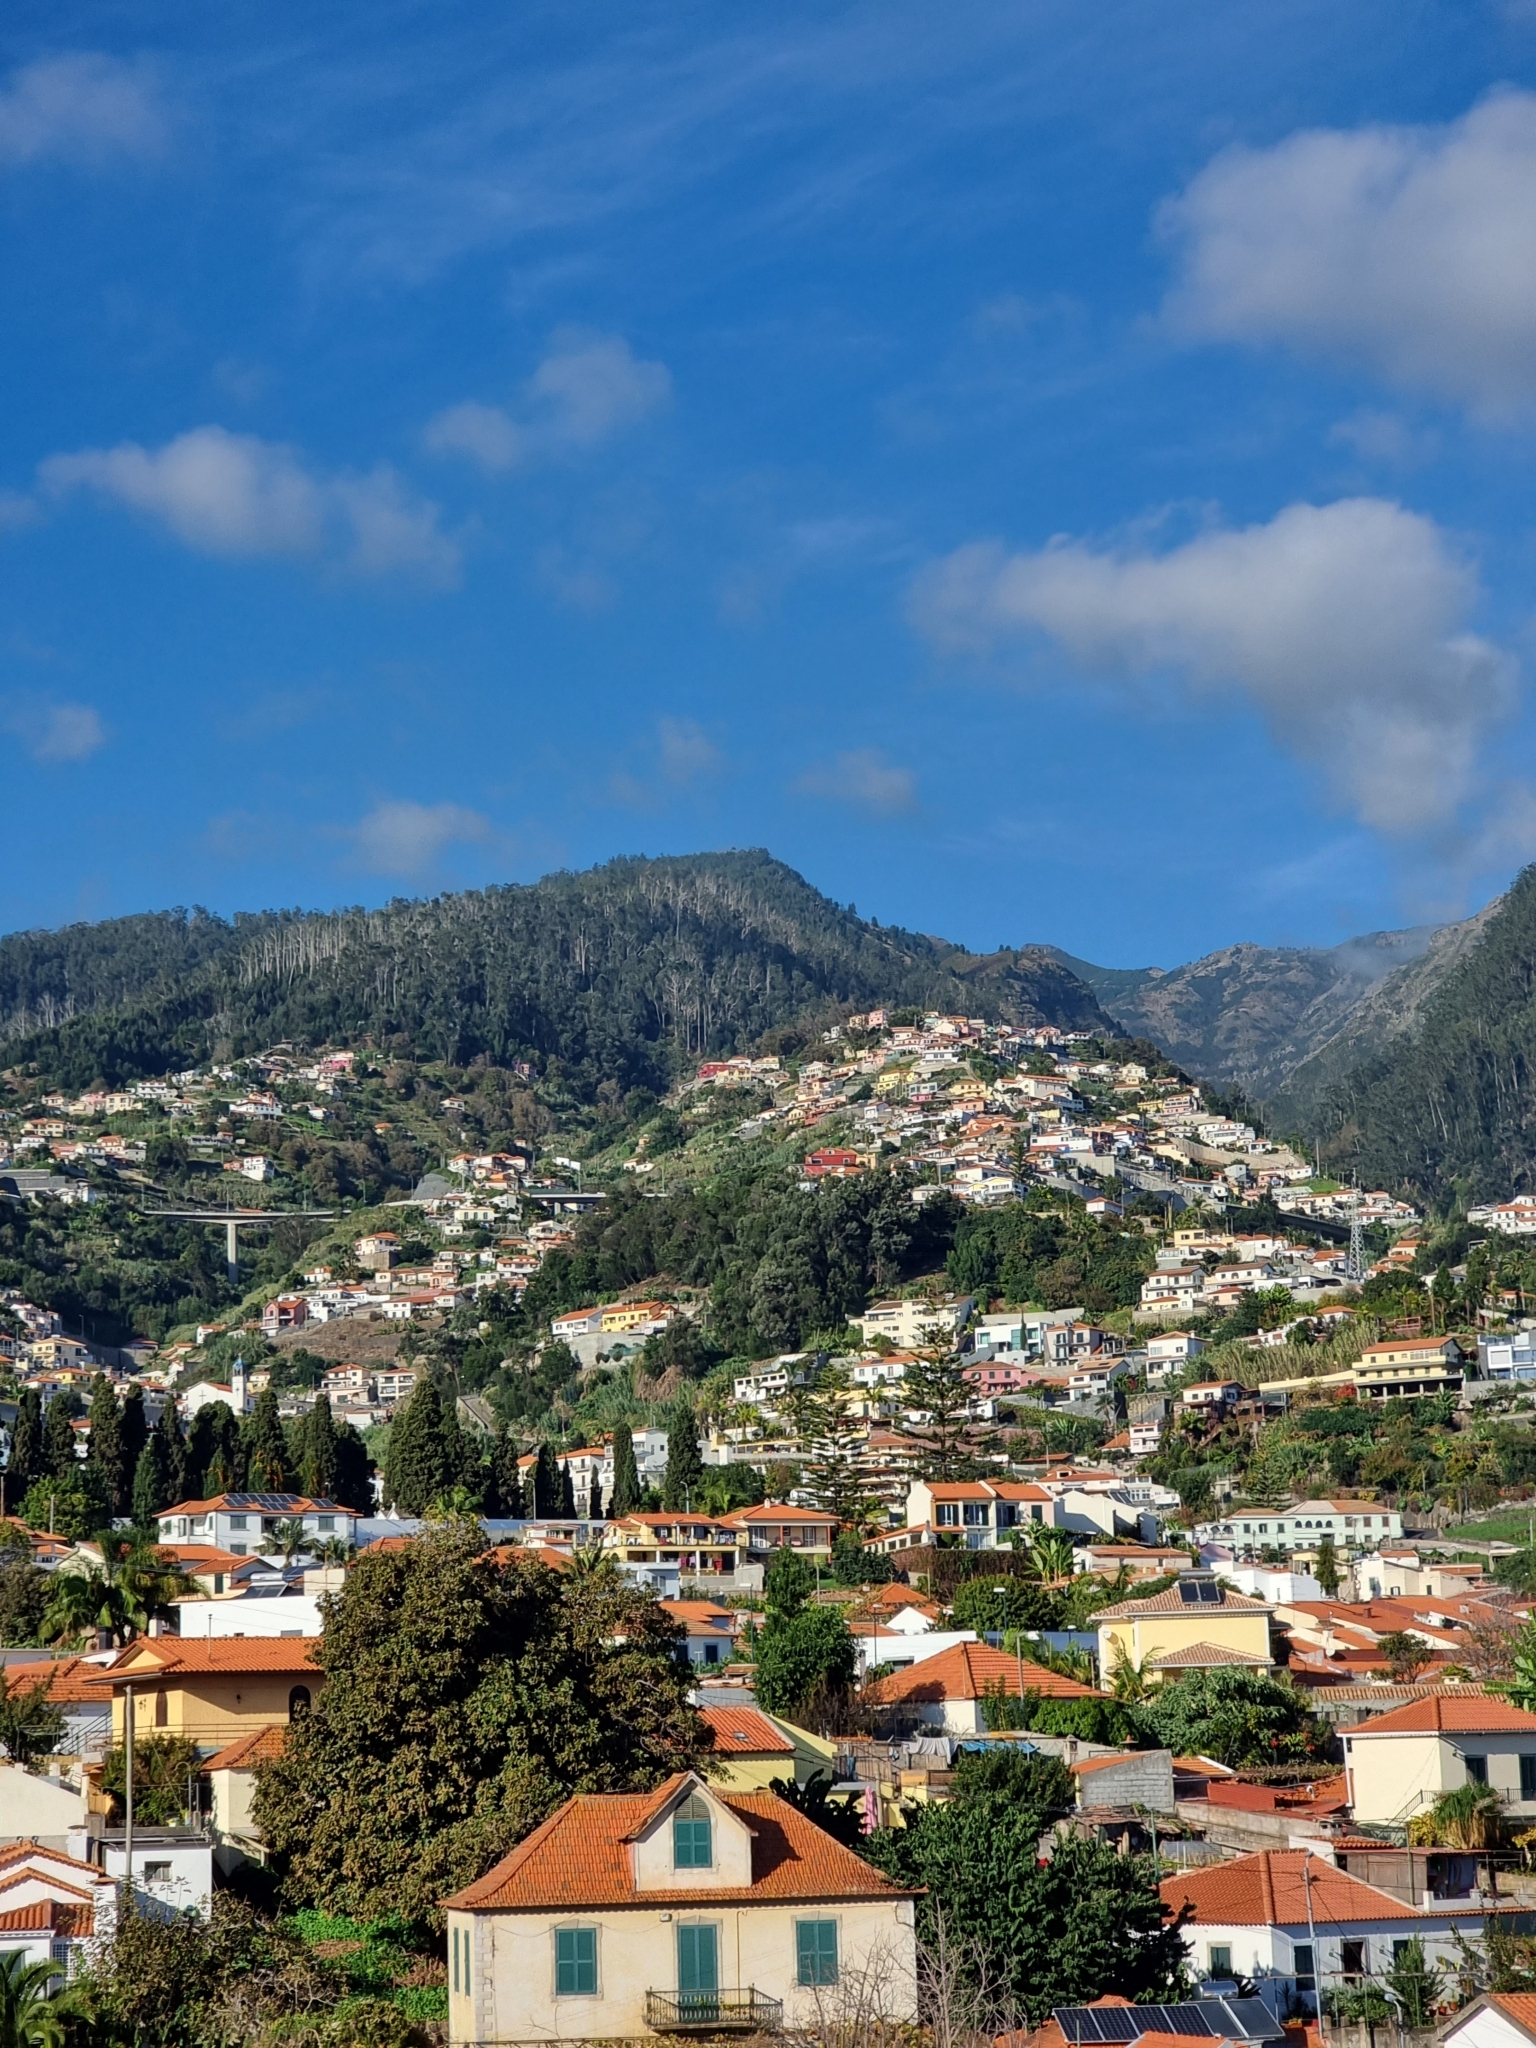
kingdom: Plantae
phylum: Tracheophyta
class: Magnoliopsida
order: Myrtales
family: Myrtaceae
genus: Eucalyptus
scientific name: Eucalyptus globulus
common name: Southern blue-gum
